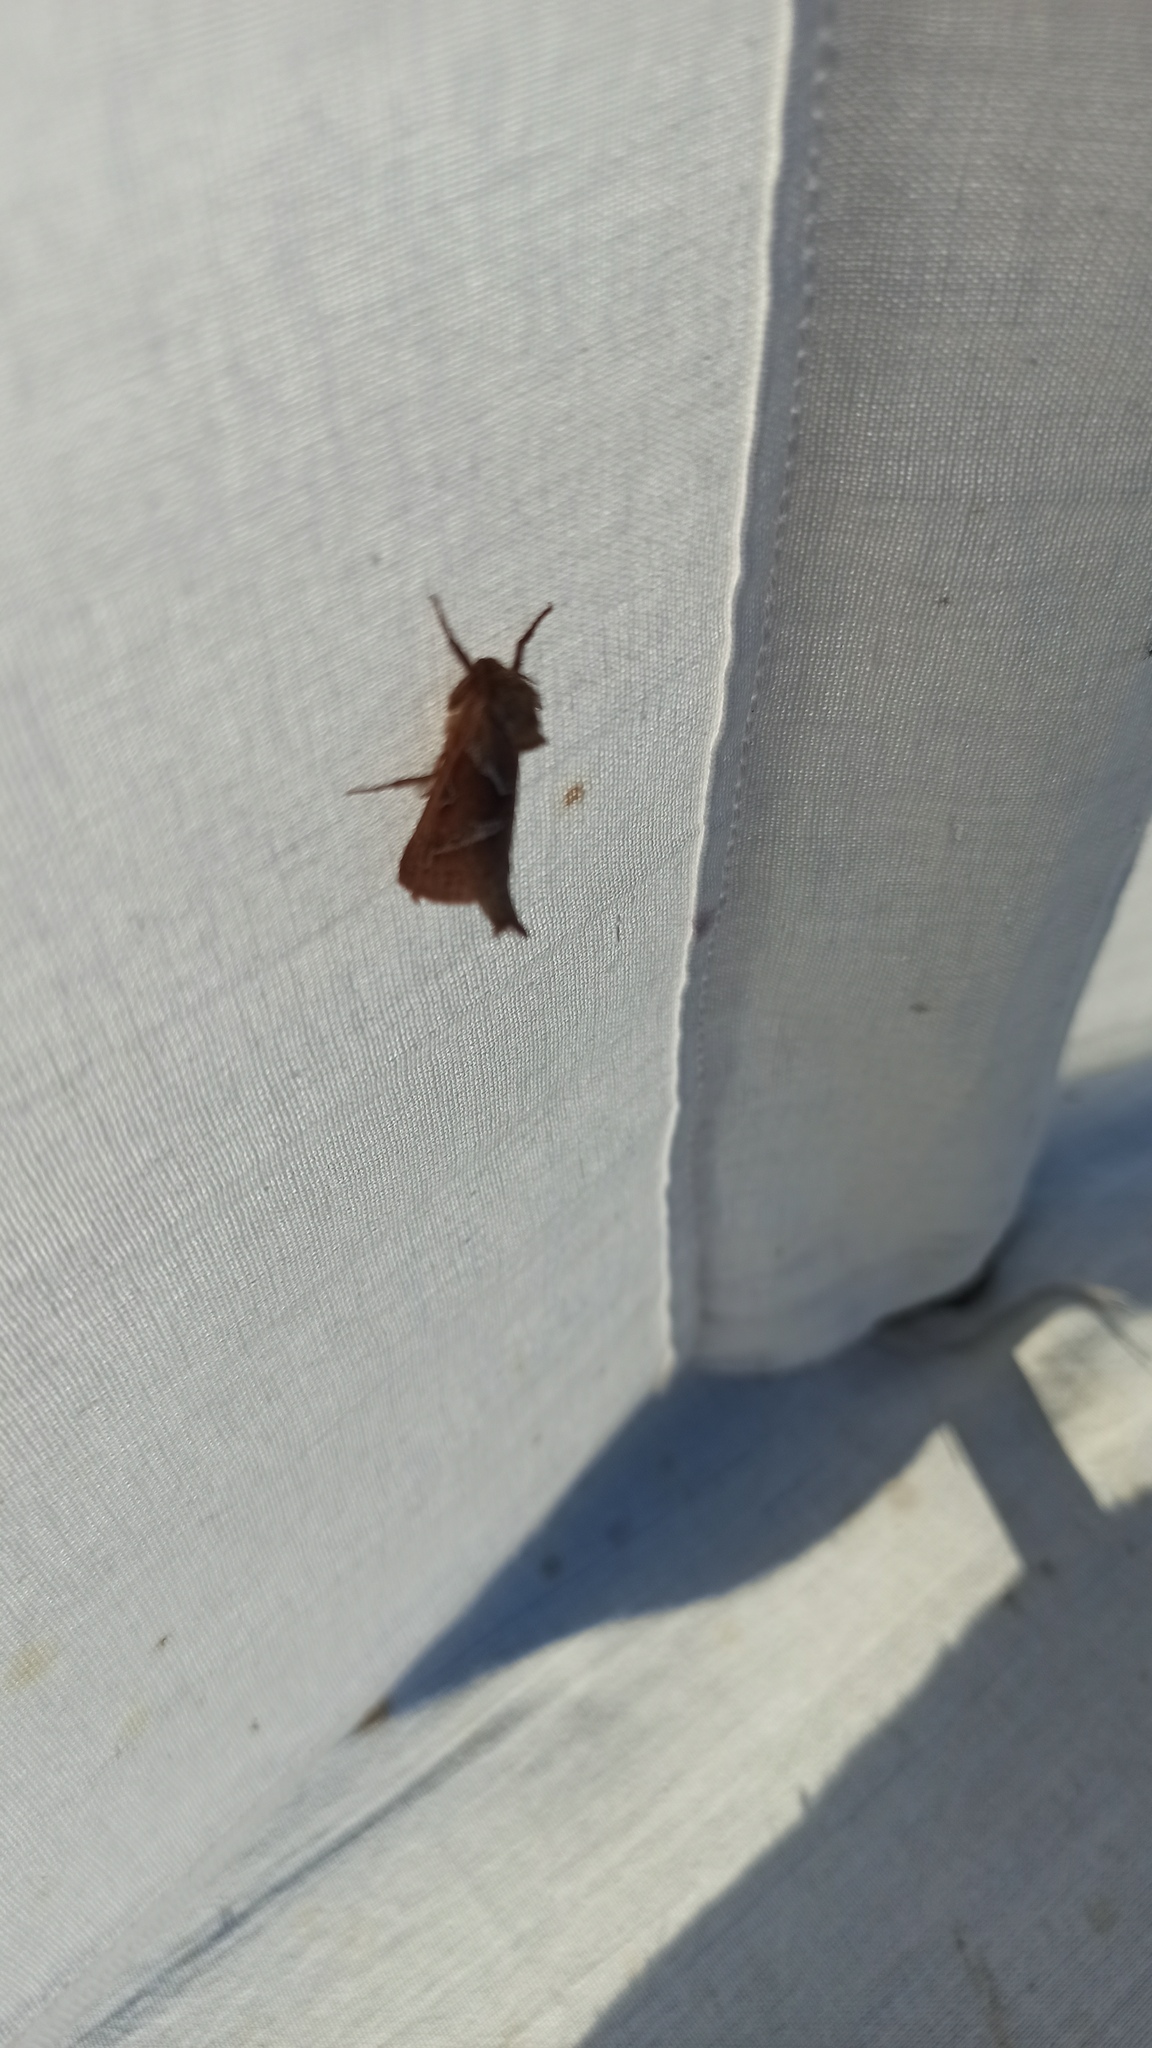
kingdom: Animalia
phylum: Arthropoda
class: Insecta
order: Lepidoptera
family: Hepialidae
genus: Triodia
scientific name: Triodia sylvina
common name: Orange swift
